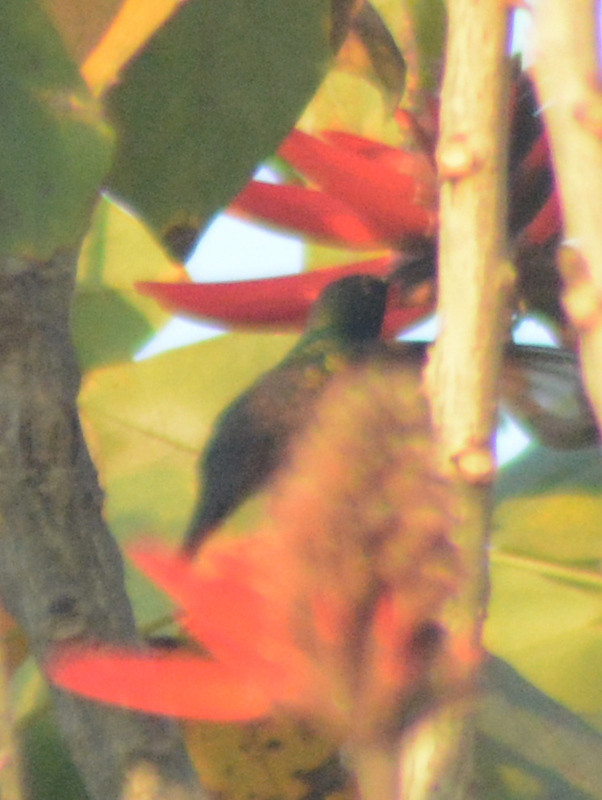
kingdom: Animalia
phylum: Chordata
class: Aves
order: Apodiformes
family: Trochilidae
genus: Saucerottia
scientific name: Saucerottia beryllina
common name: Berylline hummingbird
